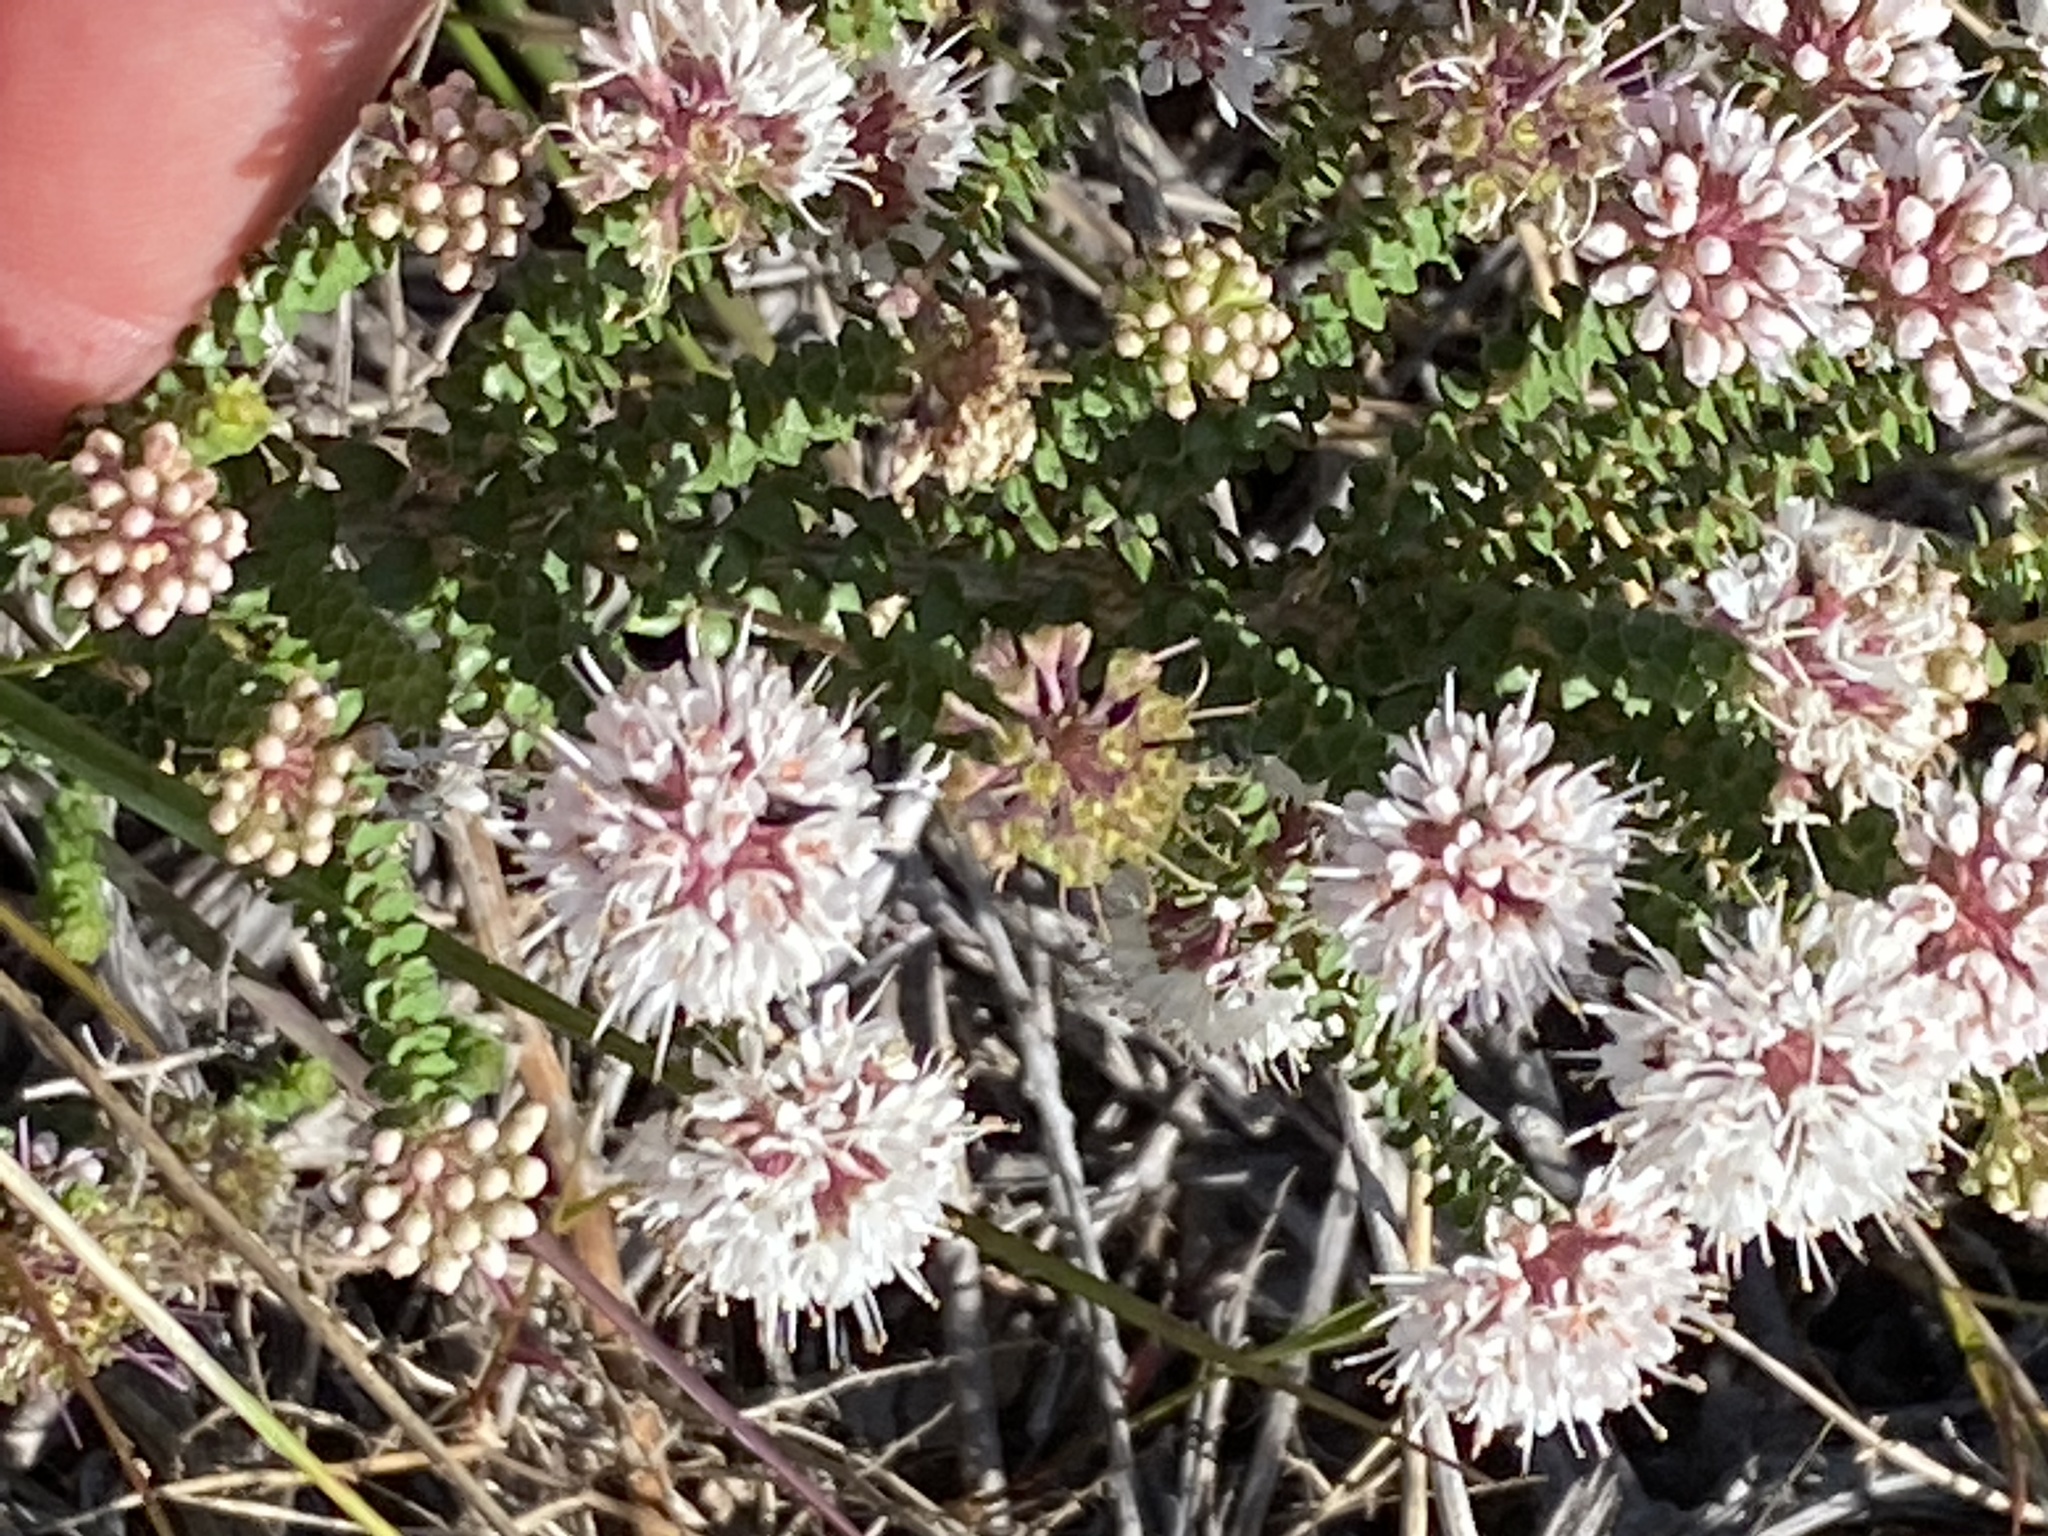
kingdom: Plantae
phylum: Tracheophyta
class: Magnoliopsida
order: Sapindales
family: Rutaceae
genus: Agathosma
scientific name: Agathosma muirii
